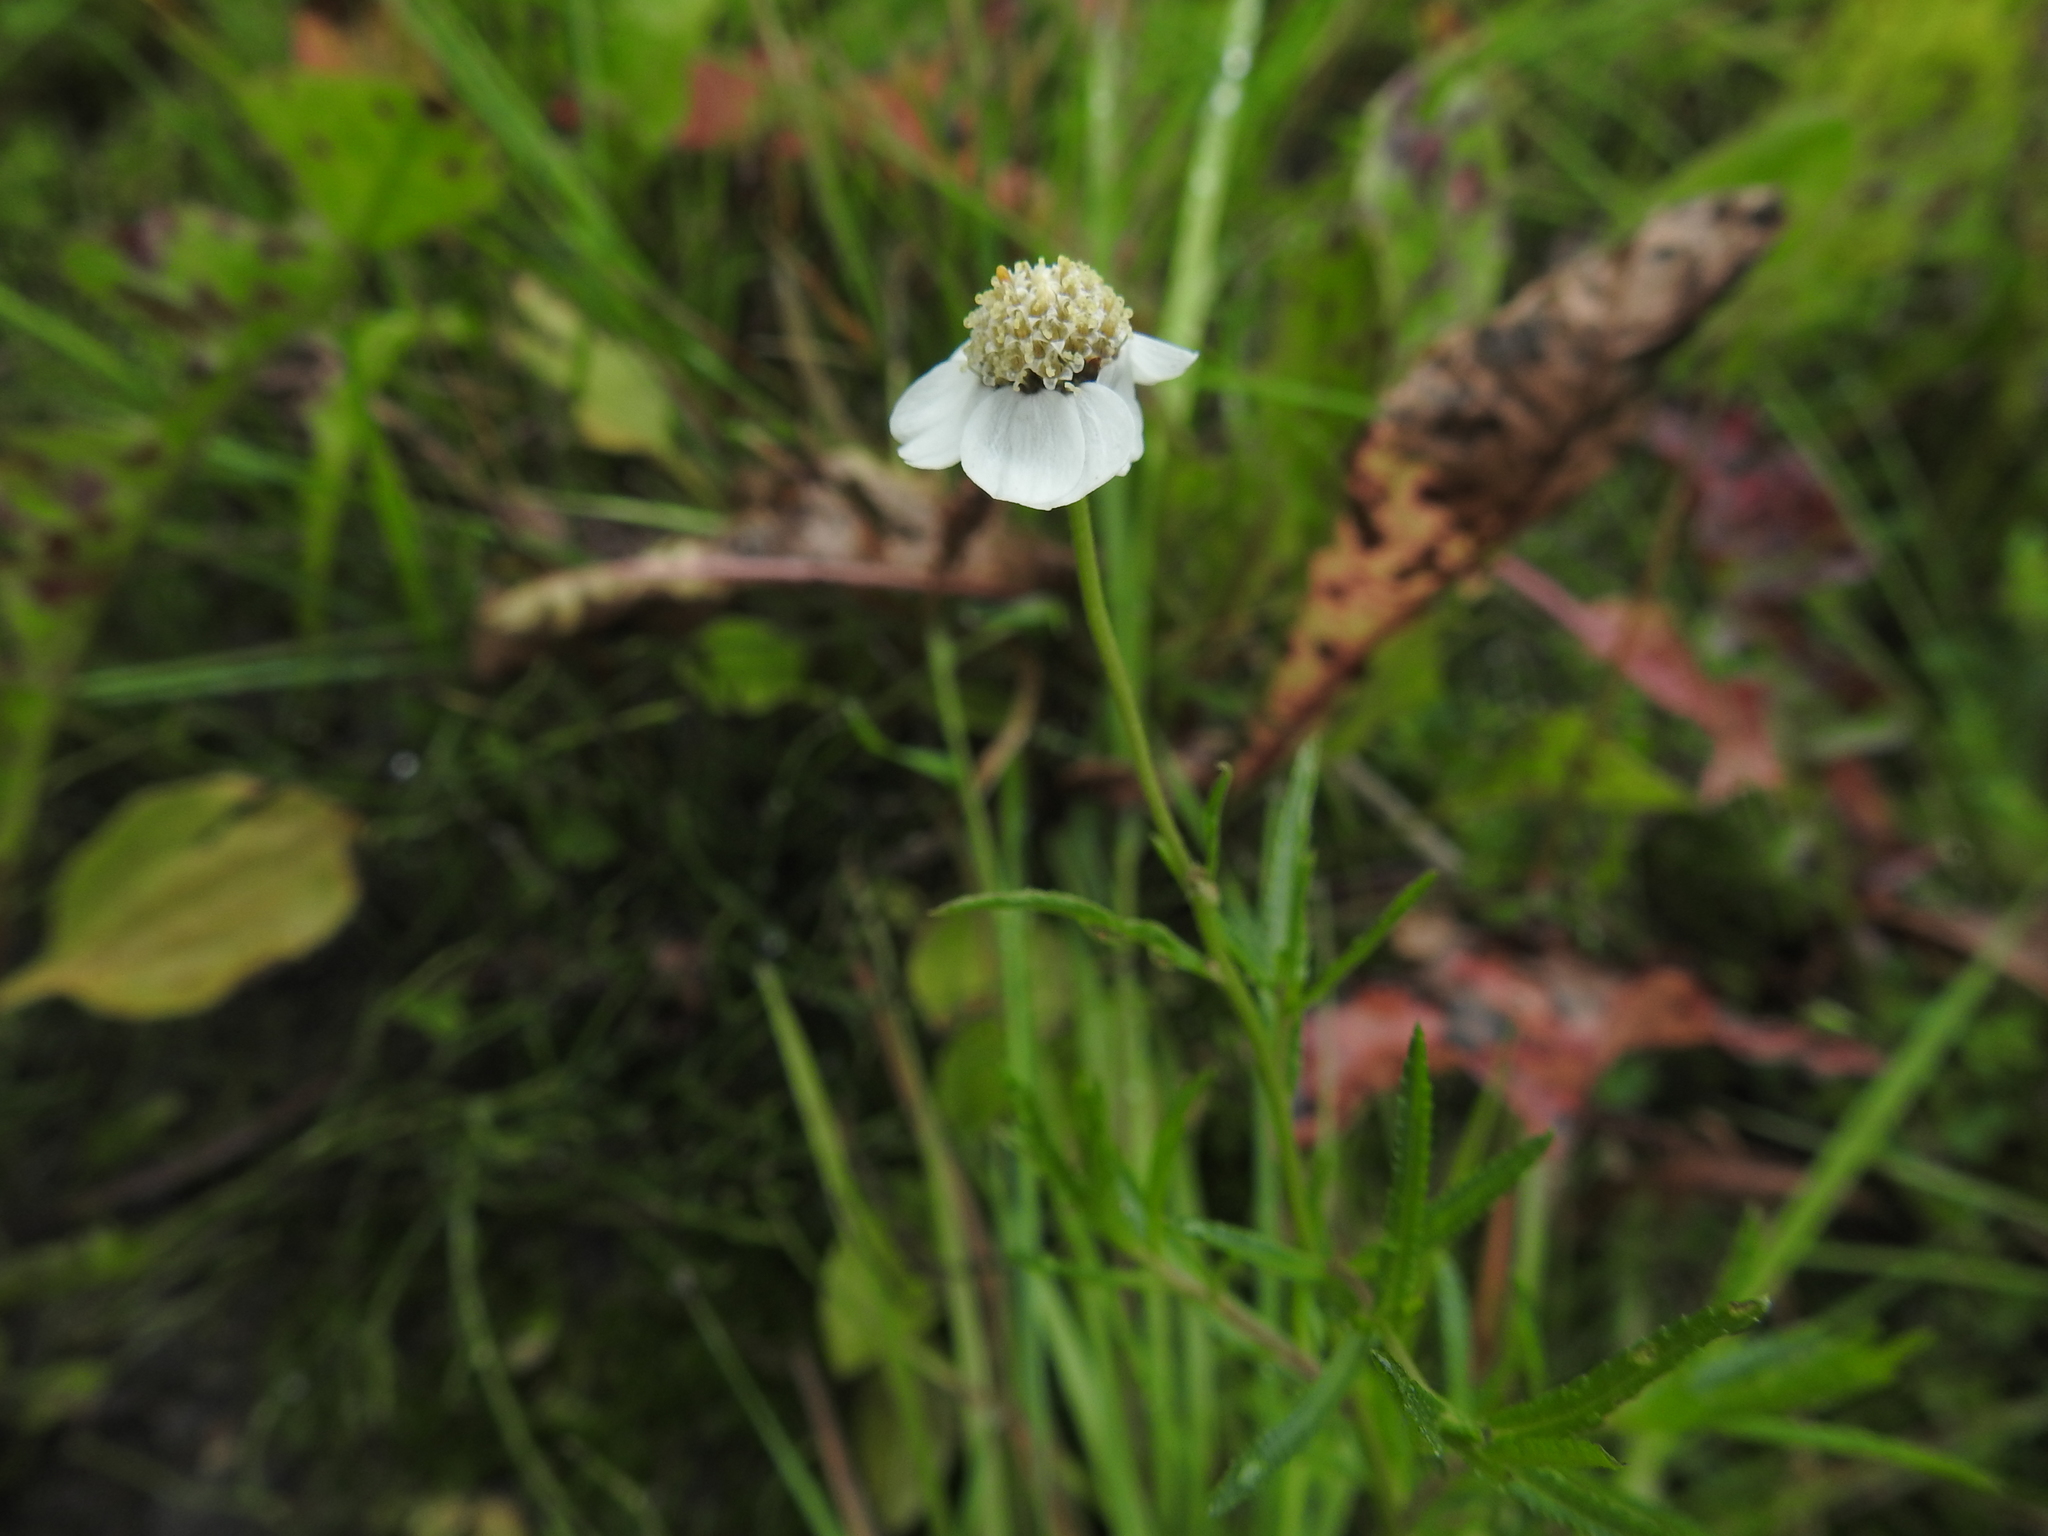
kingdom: Plantae
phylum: Tracheophyta
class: Magnoliopsida
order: Asterales
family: Asteraceae
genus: Achillea
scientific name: Achillea ptarmica
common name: Sneezeweed
